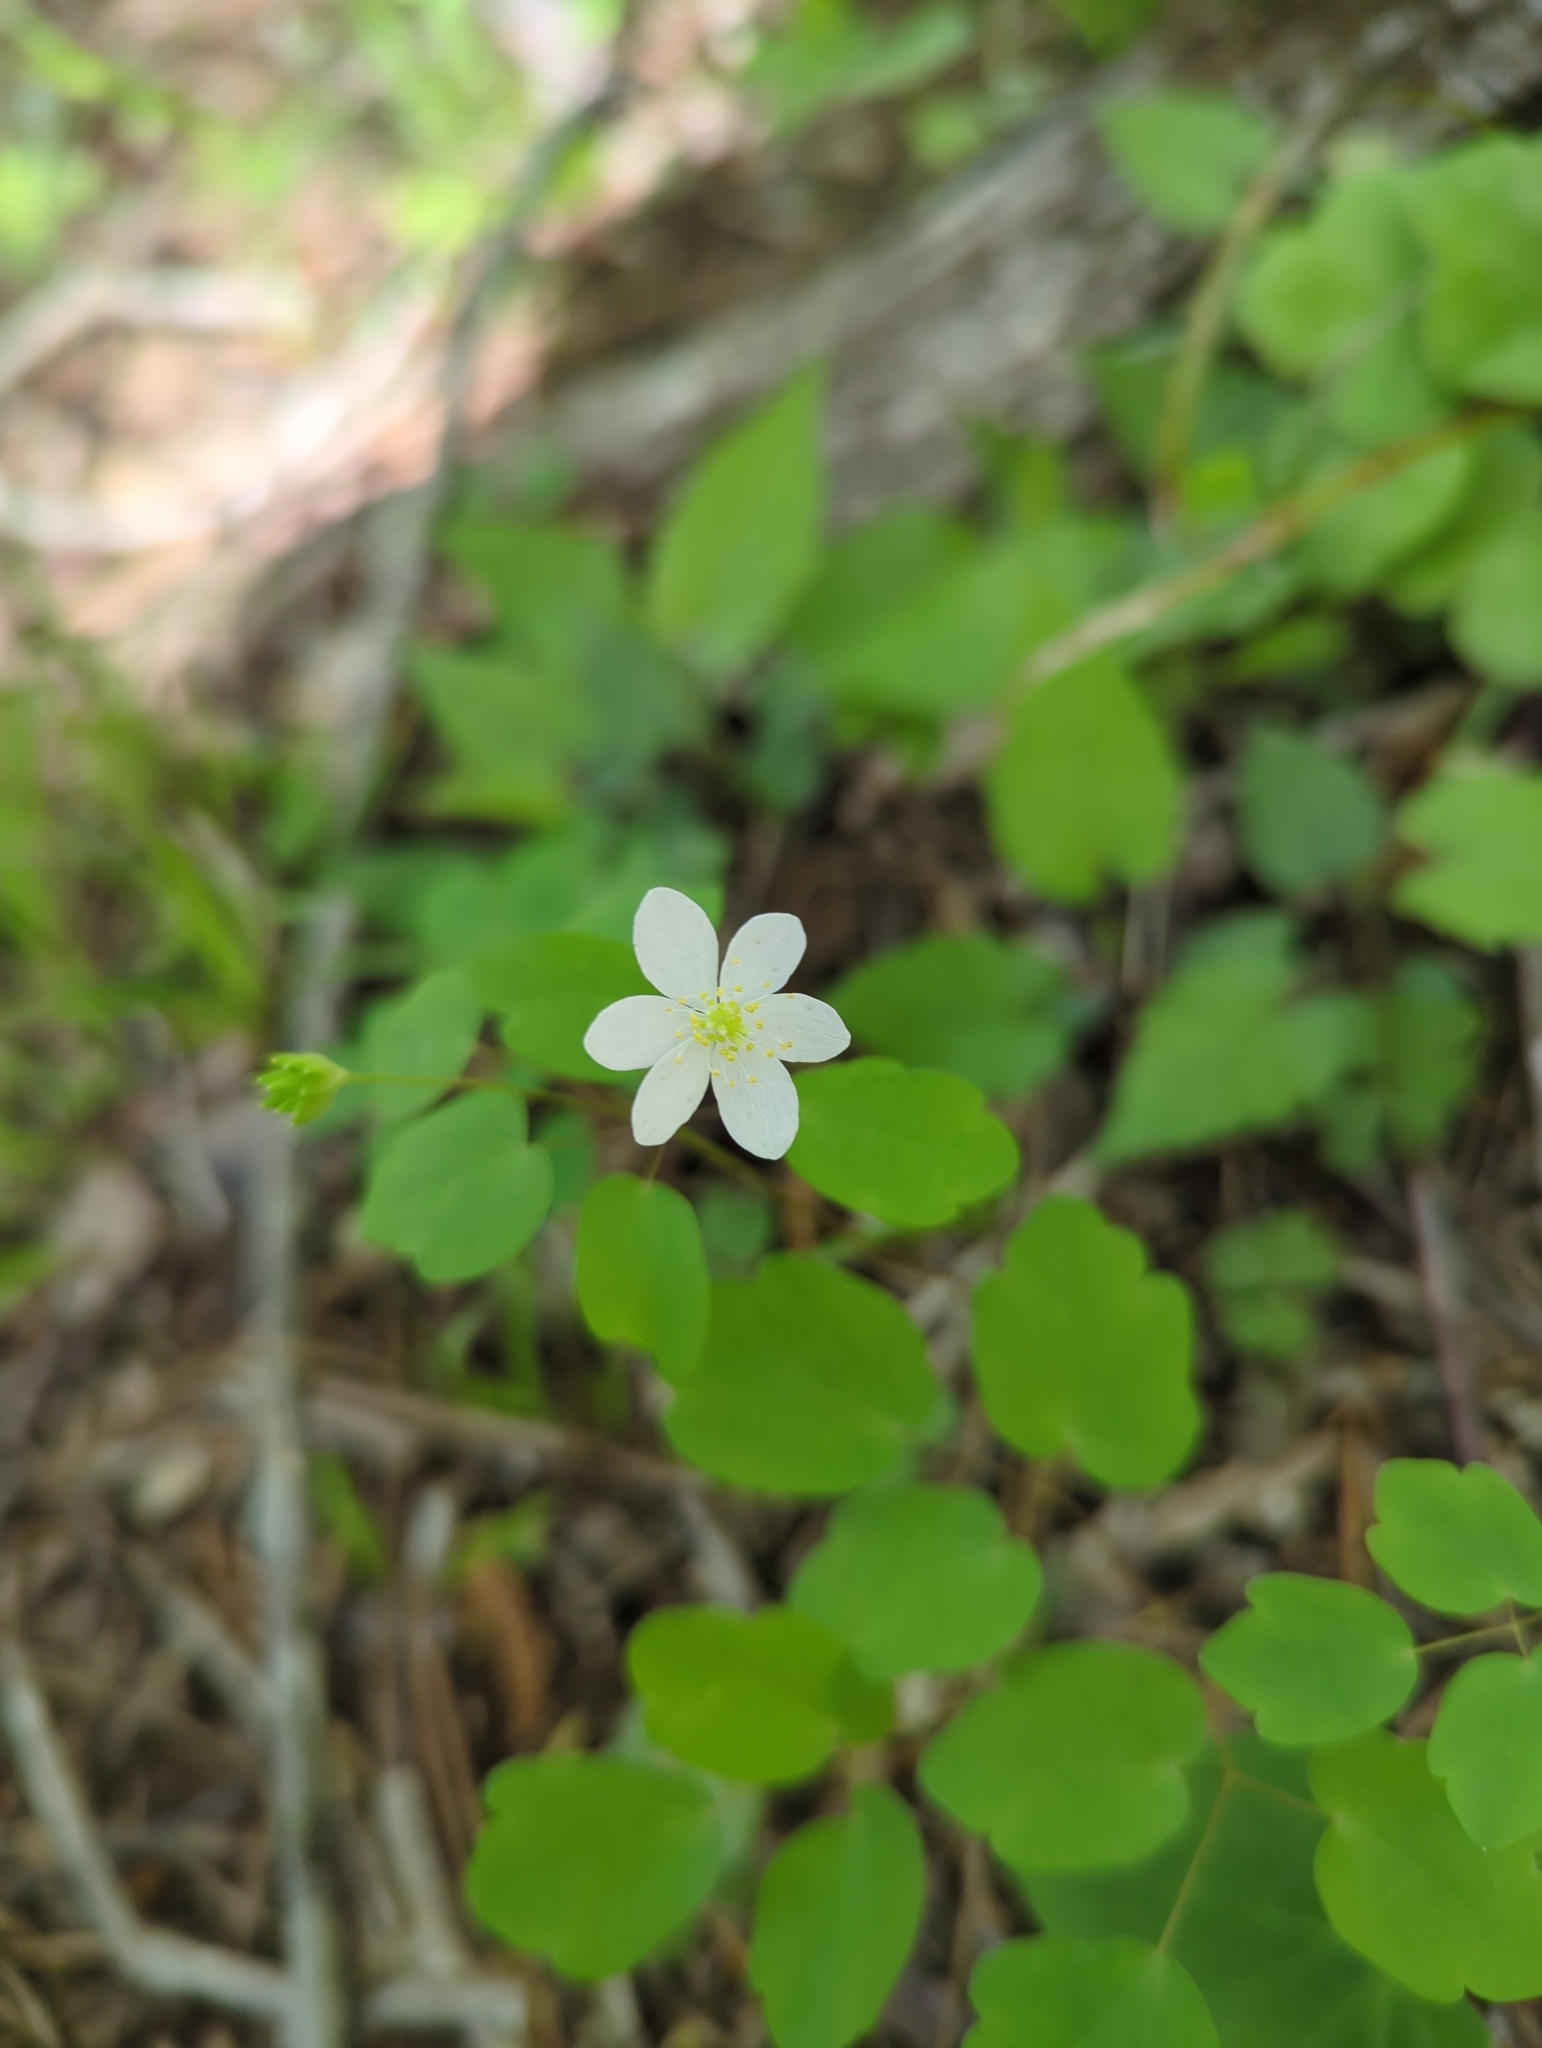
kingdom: Plantae
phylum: Tracheophyta
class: Magnoliopsida
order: Ranunculales
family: Ranunculaceae
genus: Thalictrum
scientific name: Thalictrum thalictroides
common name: Rue-anemone
